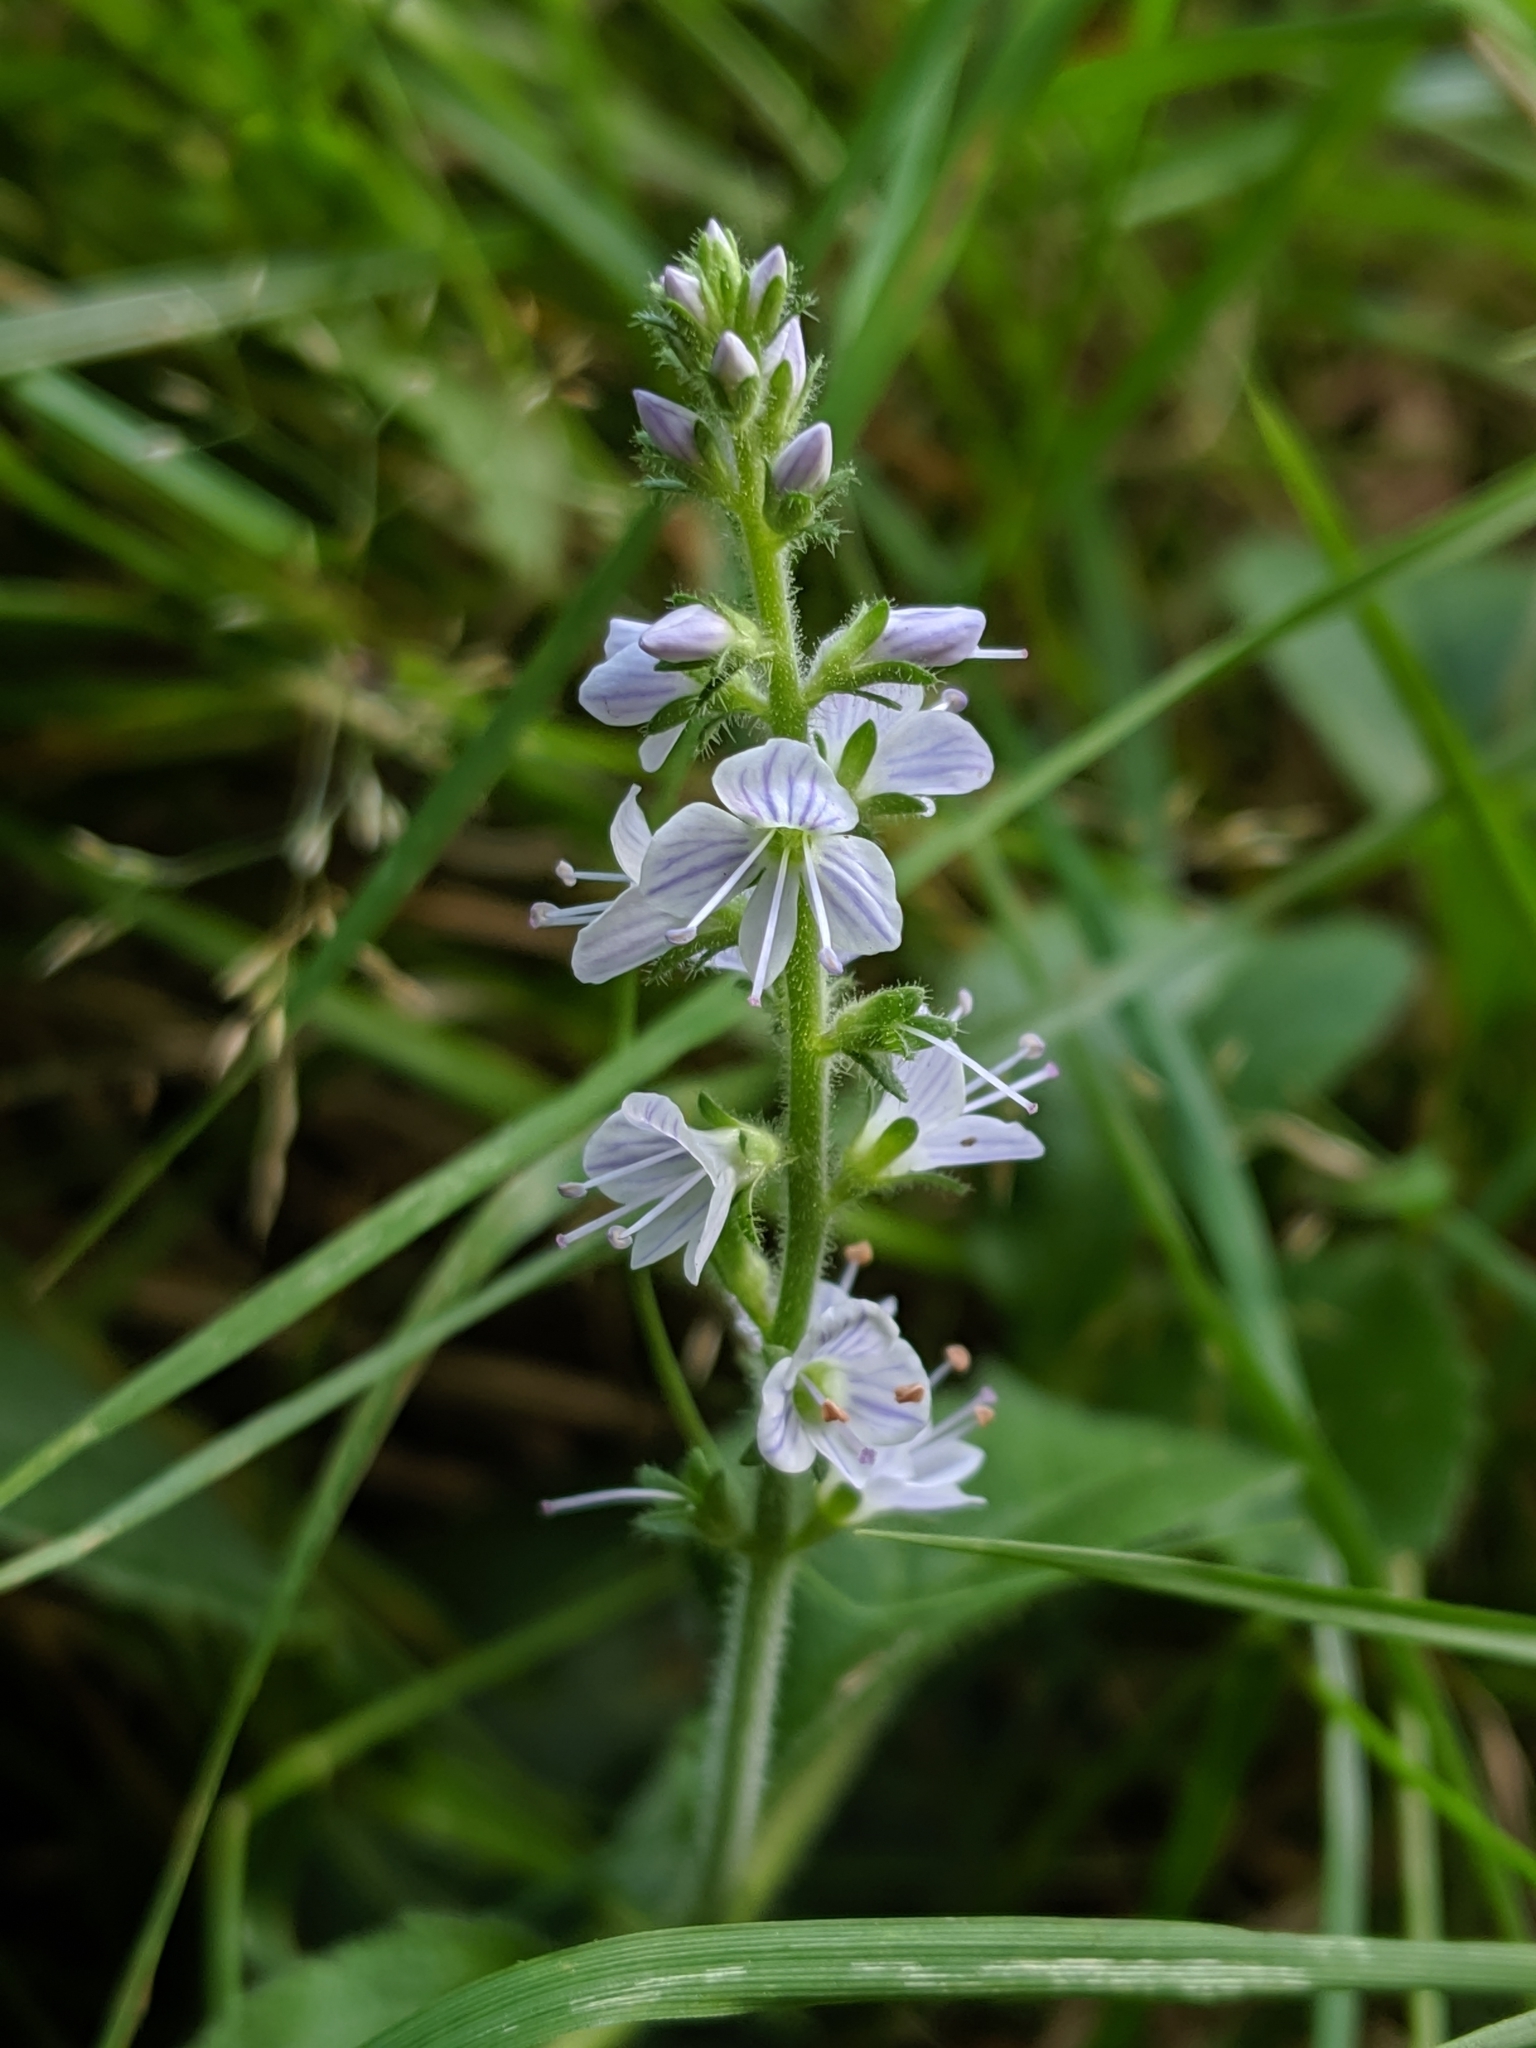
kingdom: Plantae
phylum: Tracheophyta
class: Magnoliopsida
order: Lamiales
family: Plantaginaceae
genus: Veronica
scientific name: Veronica officinalis
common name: Common speedwell
